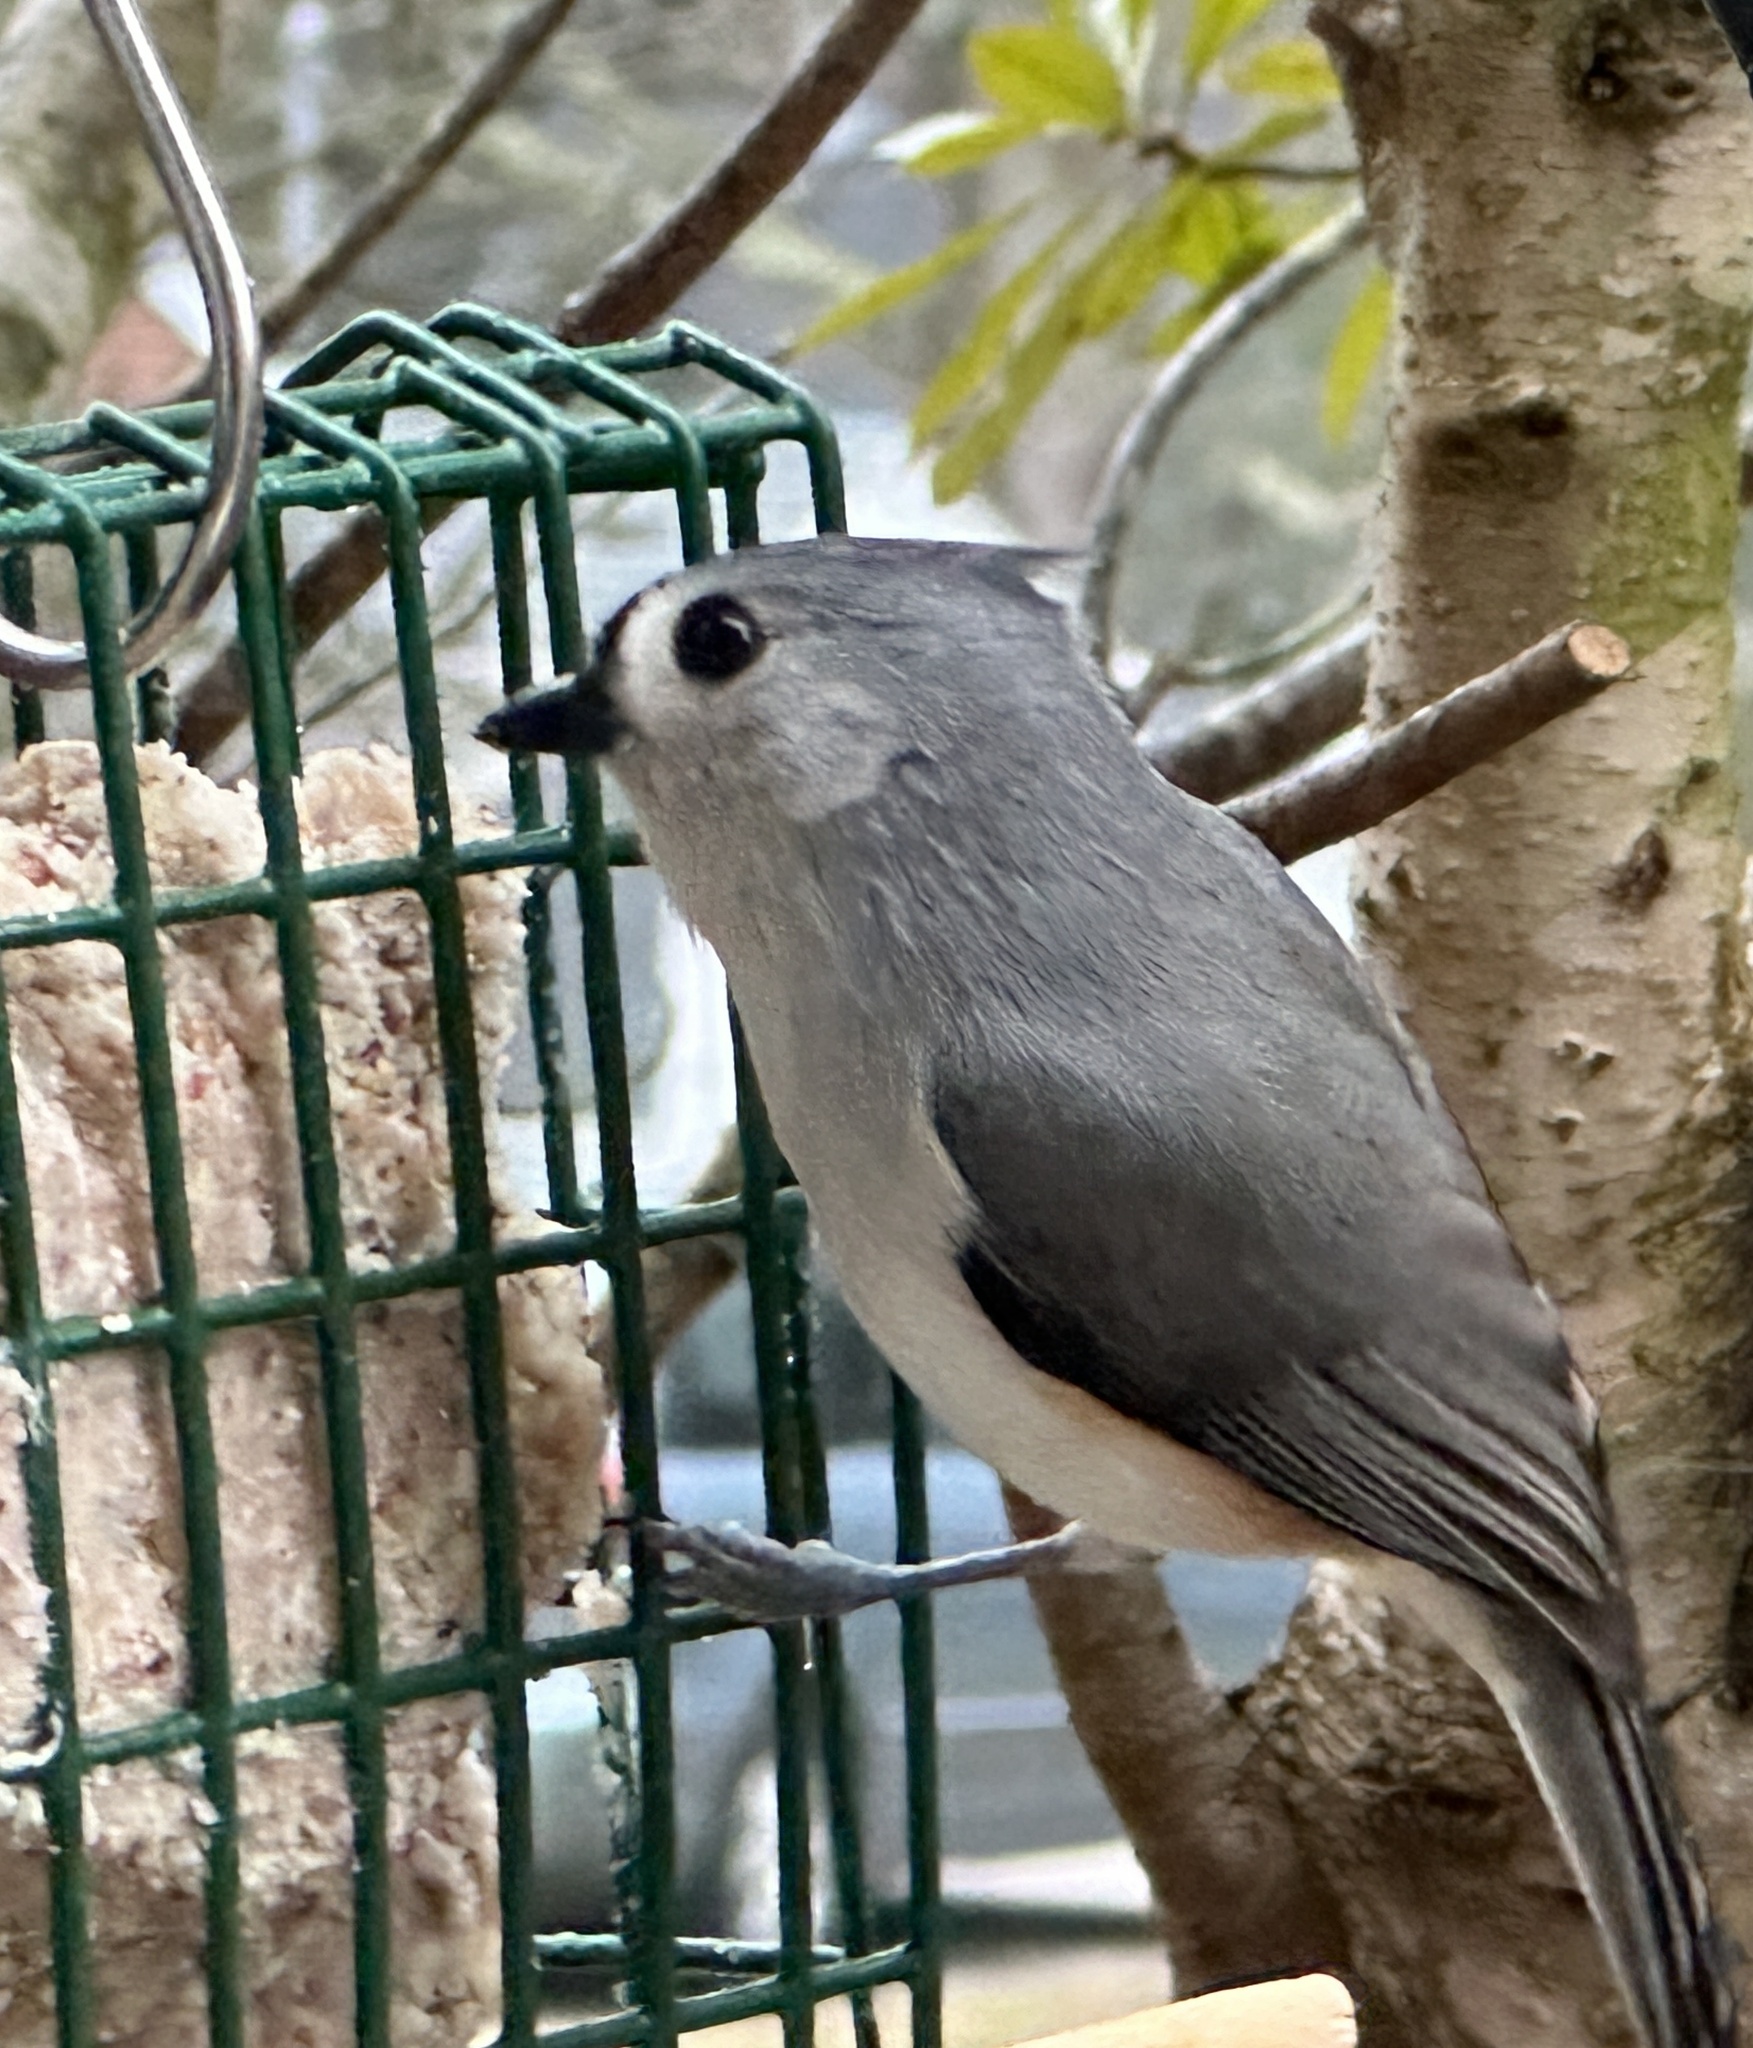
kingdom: Animalia
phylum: Chordata
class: Aves
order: Passeriformes
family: Paridae
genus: Baeolophus
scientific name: Baeolophus bicolor
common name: Tufted titmouse
